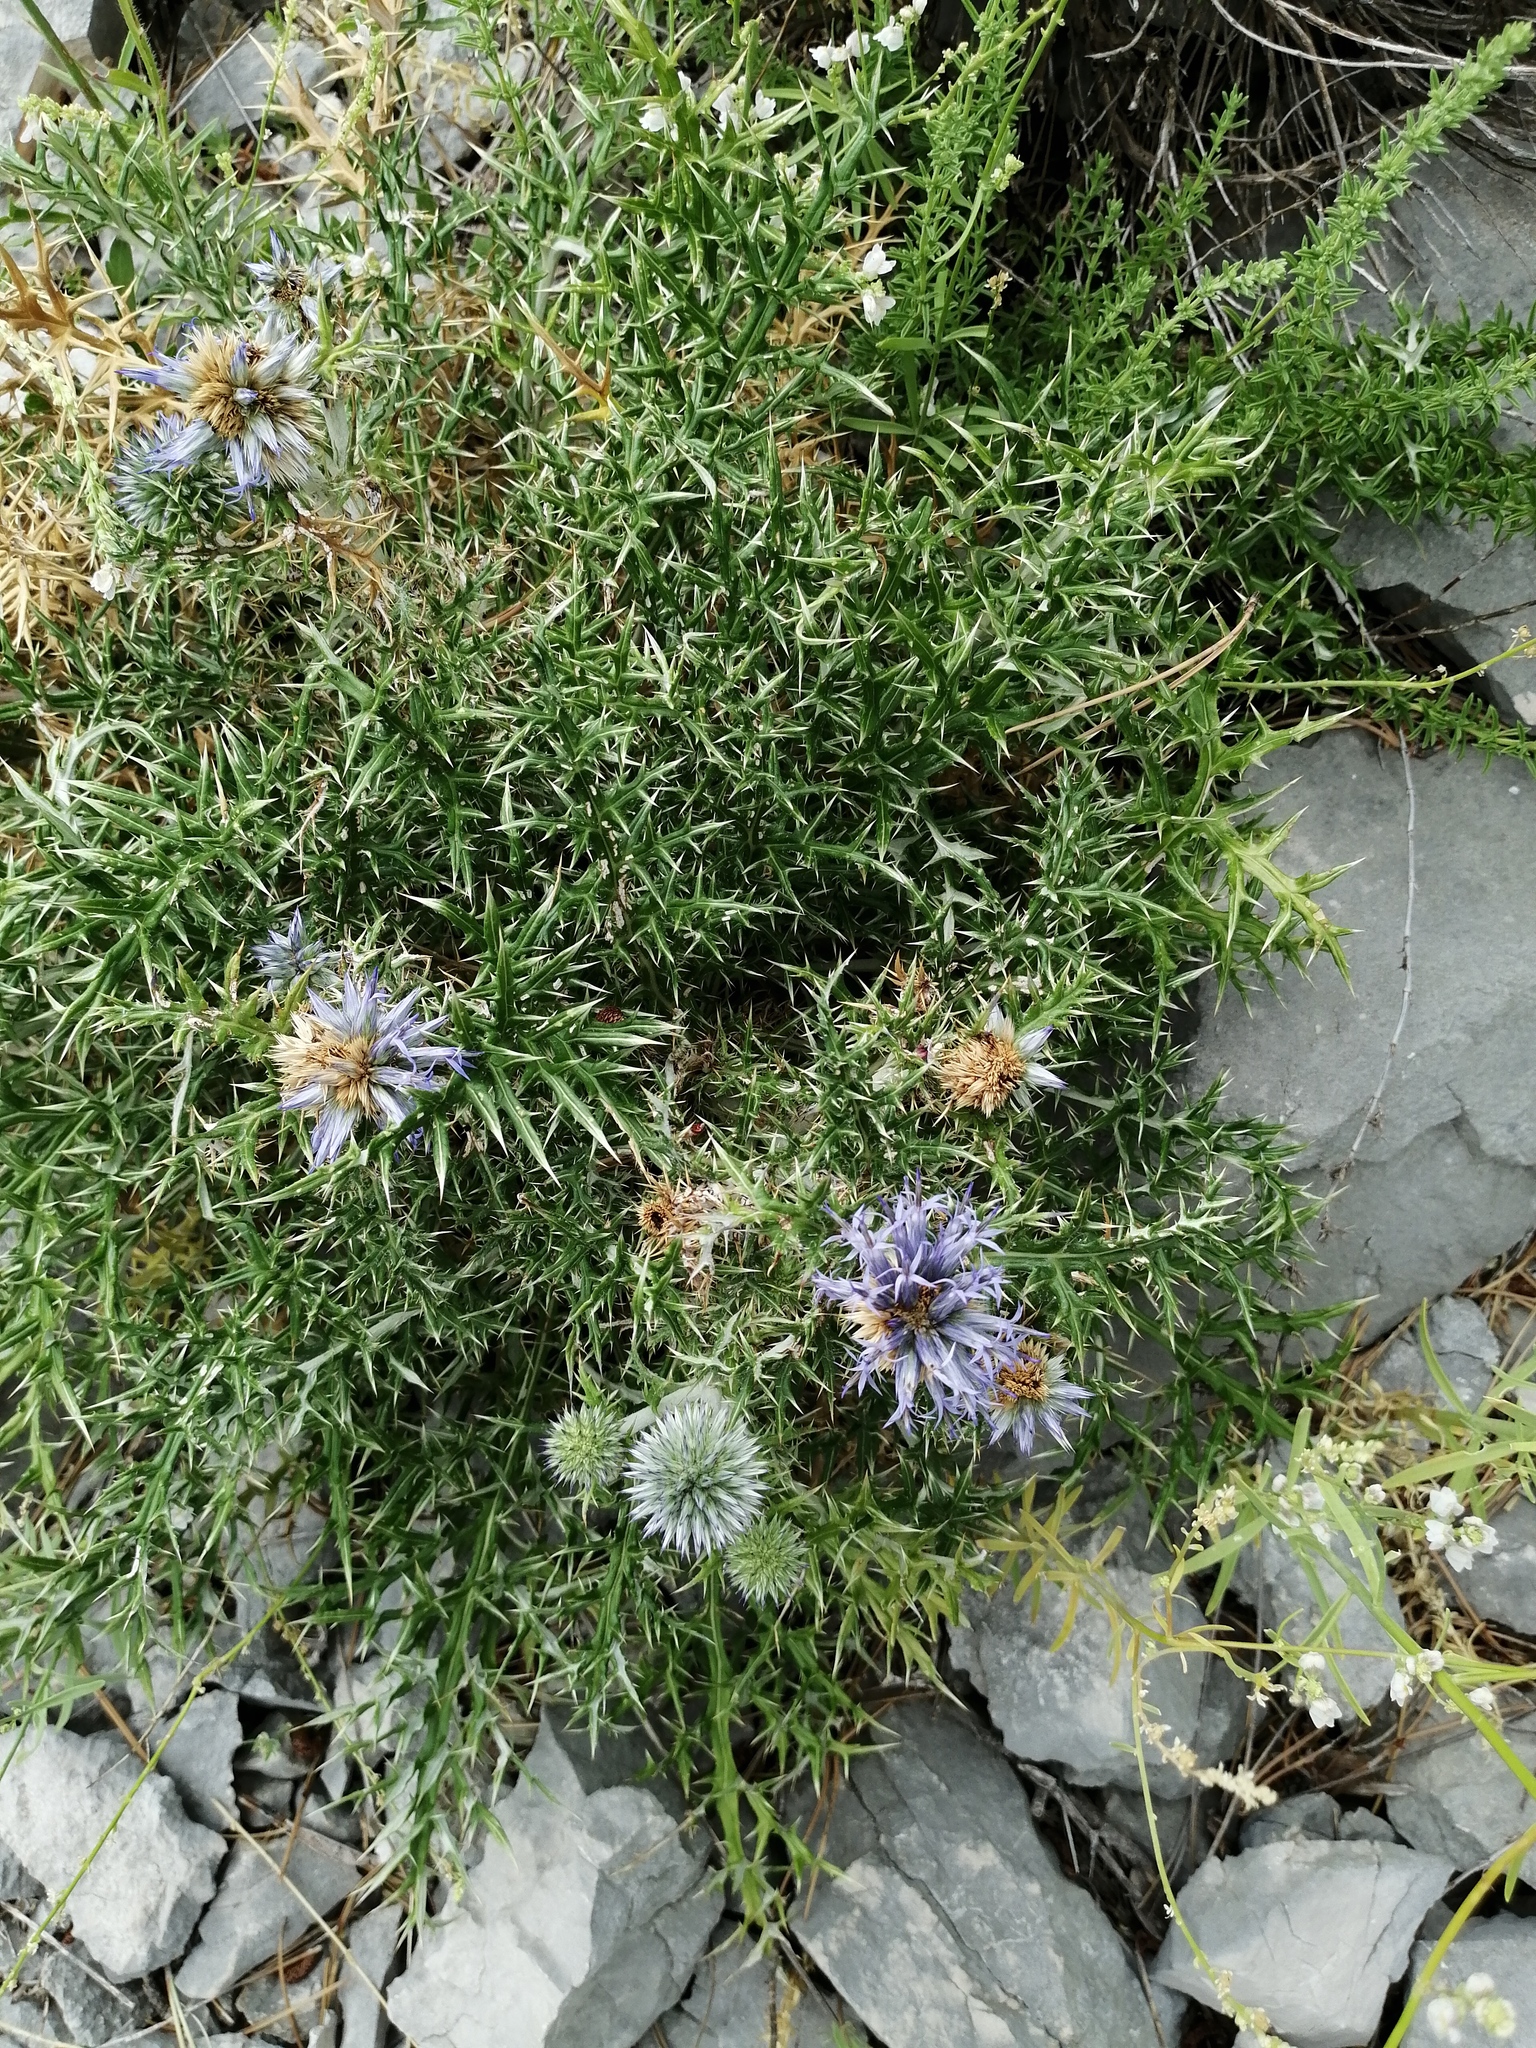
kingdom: Plantae
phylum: Tracheophyta
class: Magnoliopsida
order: Asterales
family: Asteraceae
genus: Echinops
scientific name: Echinops ritro
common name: Globe thistle
